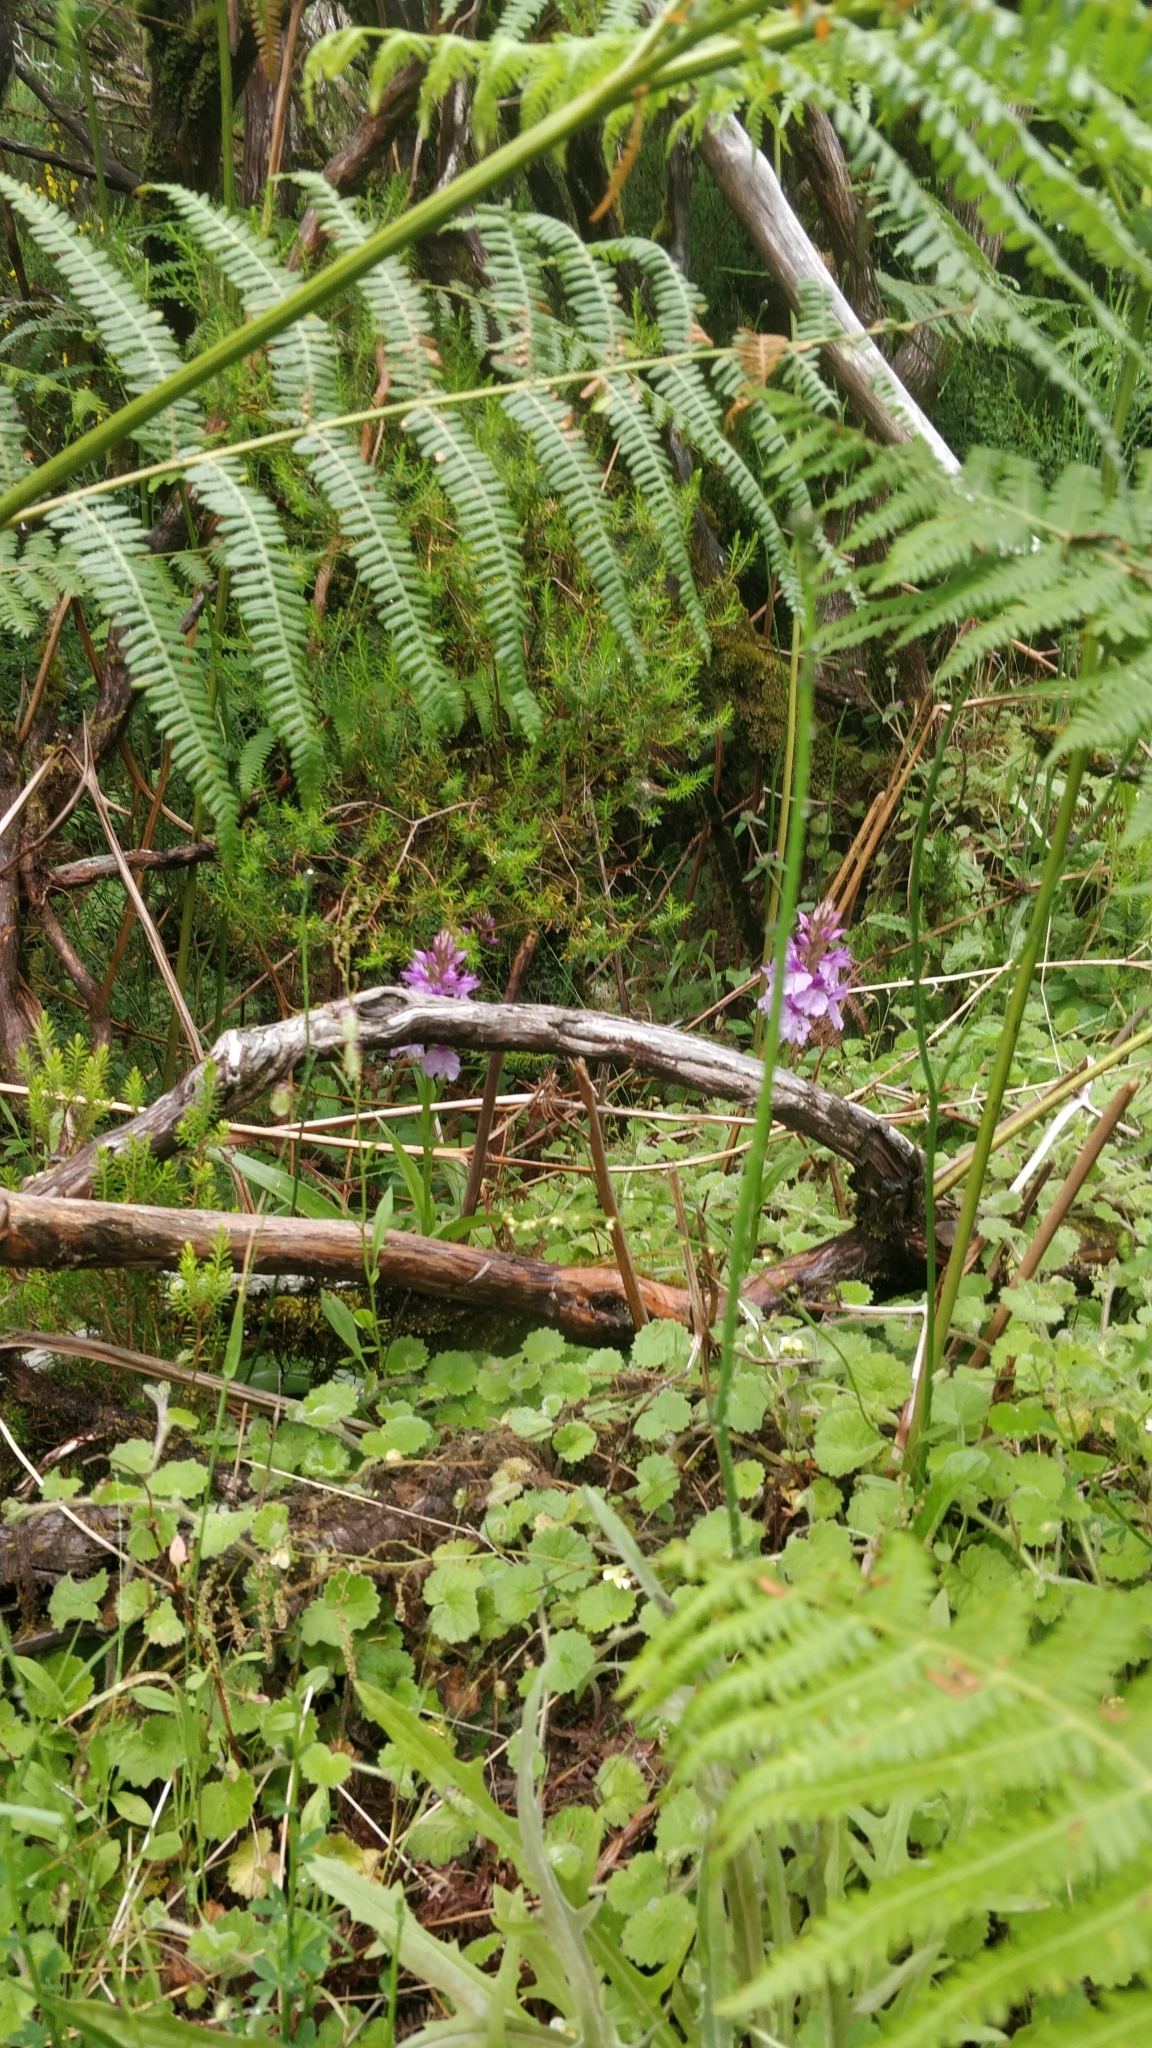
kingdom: Plantae
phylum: Tracheophyta
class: Liliopsida
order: Asparagales
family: Orchidaceae
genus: Dactylorhiza
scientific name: Dactylorhiza foliosa
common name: Richly-leaved dactylorhiza
